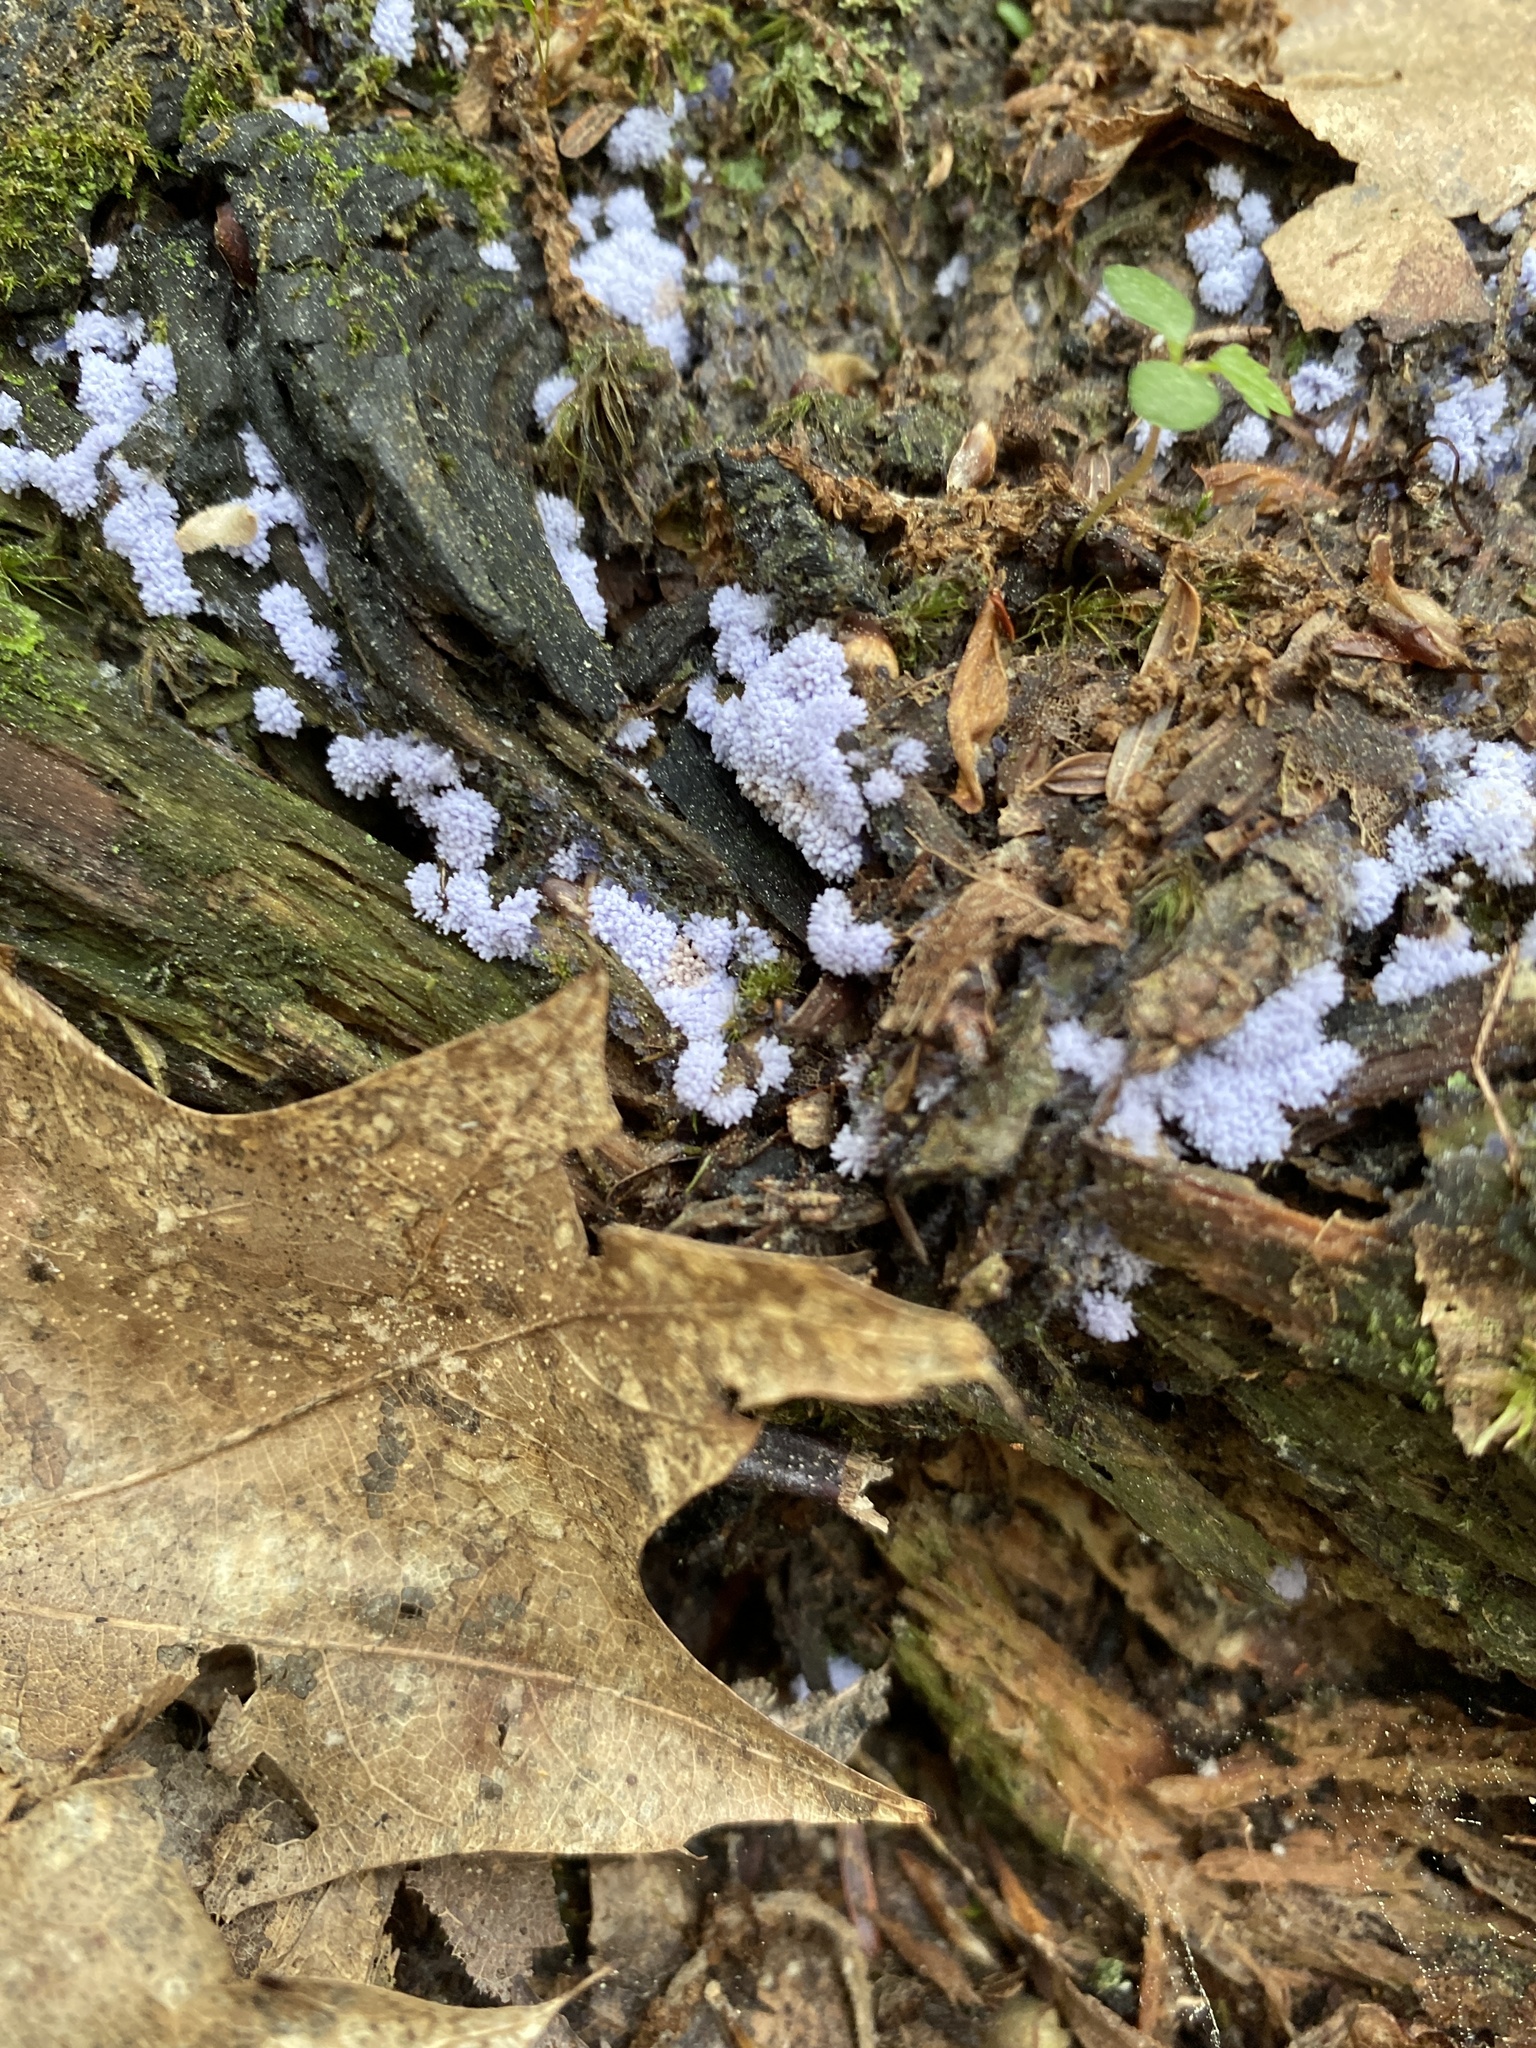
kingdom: Fungi
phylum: Ascomycota
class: Pezizomycetes
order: Pezizales
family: Pezizaceae
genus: Chromelosporiopsis
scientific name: Chromelosporiopsis coerulescens
